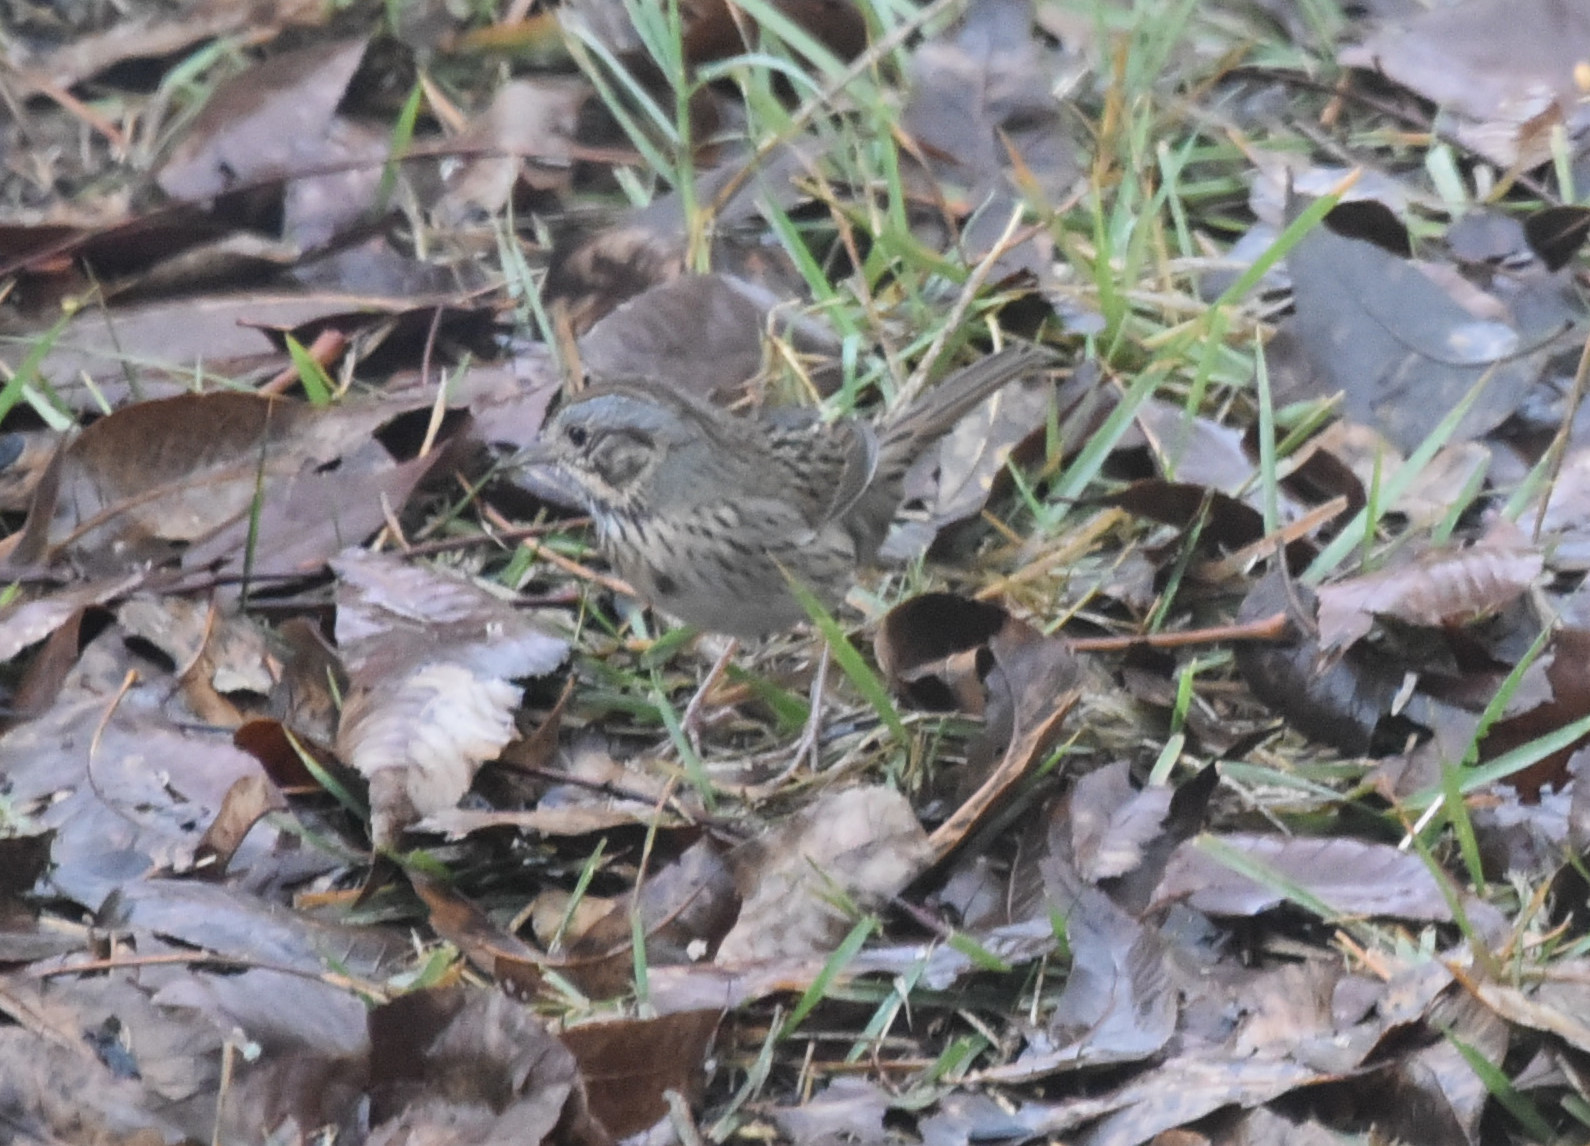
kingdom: Animalia
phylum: Chordata
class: Aves
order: Passeriformes
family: Passerellidae
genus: Melospiza
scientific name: Melospiza lincolnii
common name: Lincoln's sparrow
